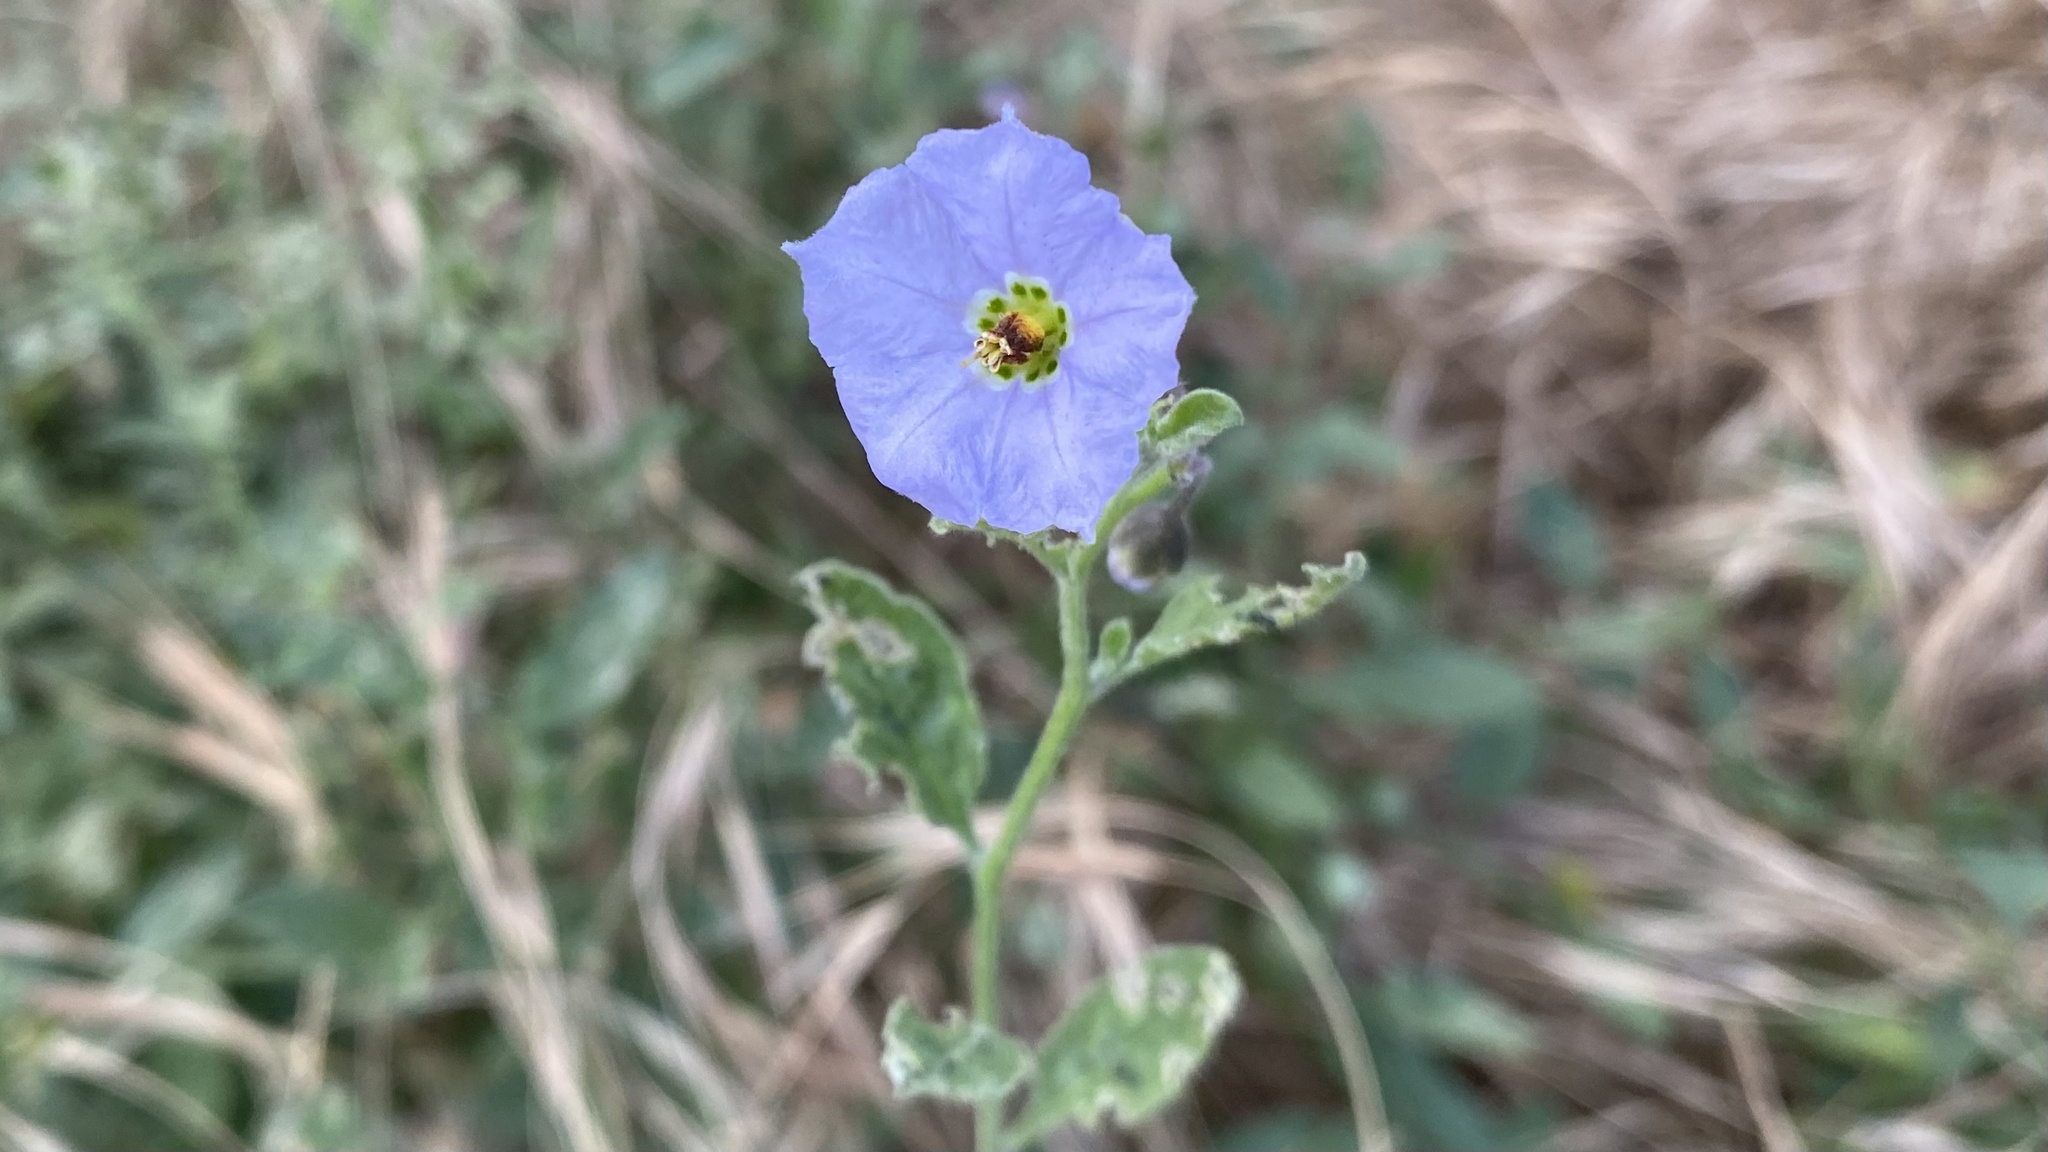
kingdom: Plantae
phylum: Tracheophyta
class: Magnoliopsida
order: Solanales
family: Solanaceae
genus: Solanum
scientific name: Solanum umbelliferum
